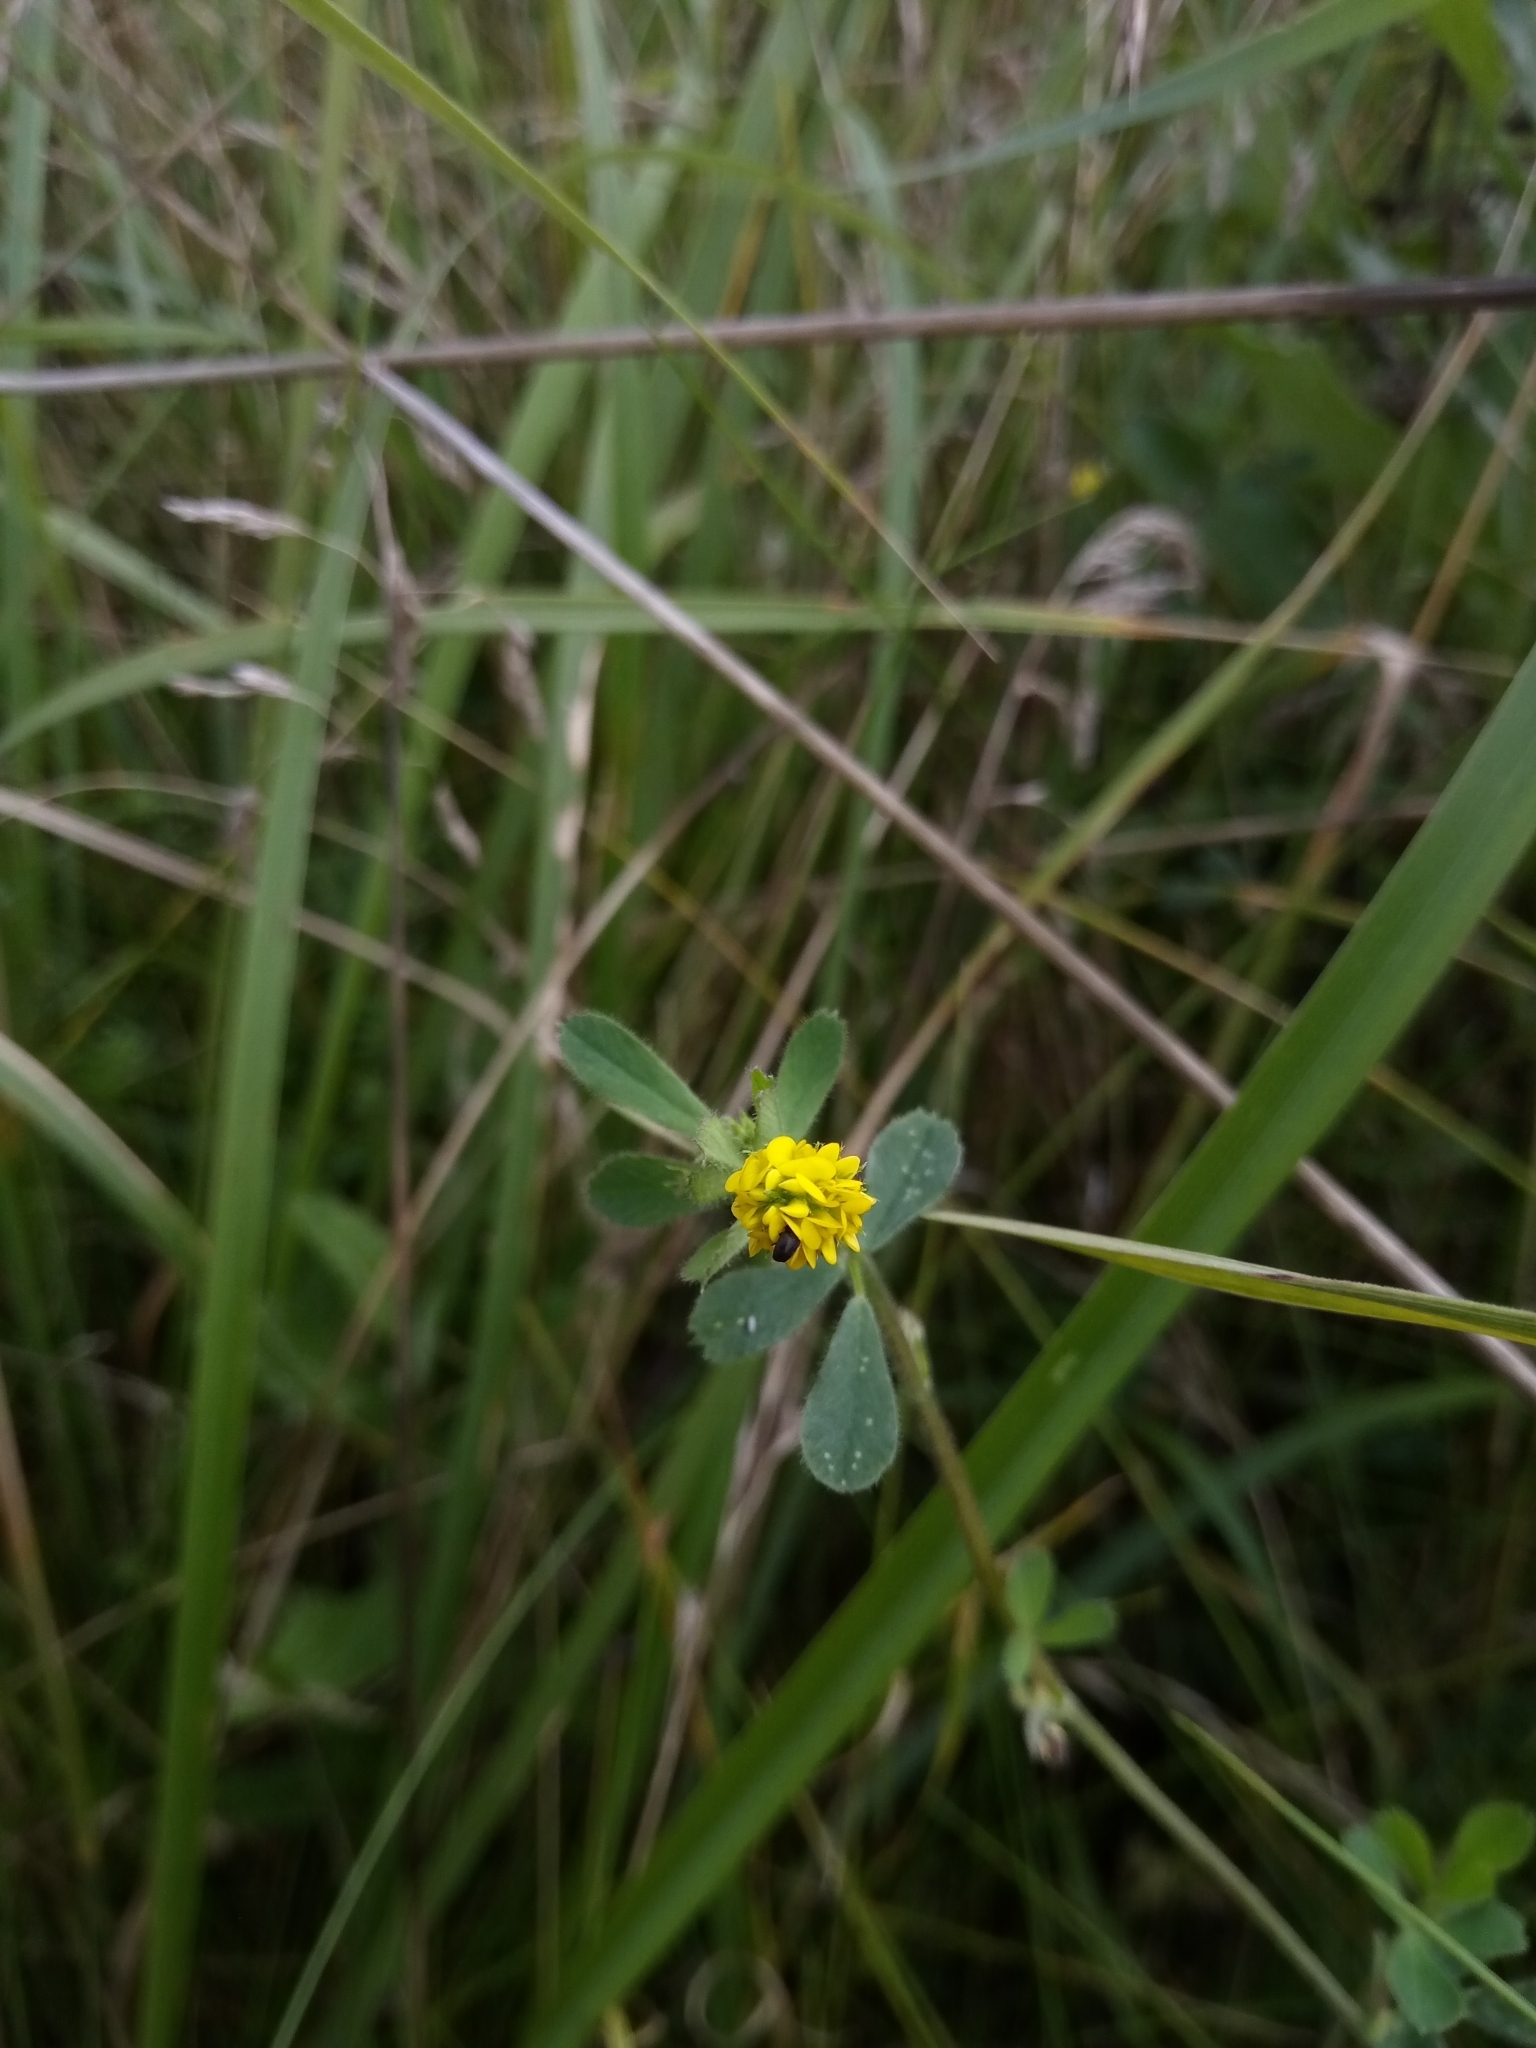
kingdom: Plantae
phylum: Tracheophyta
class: Magnoliopsida
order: Fabales
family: Fabaceae
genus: Medicago
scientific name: Medicago lupulina
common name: Black medick
